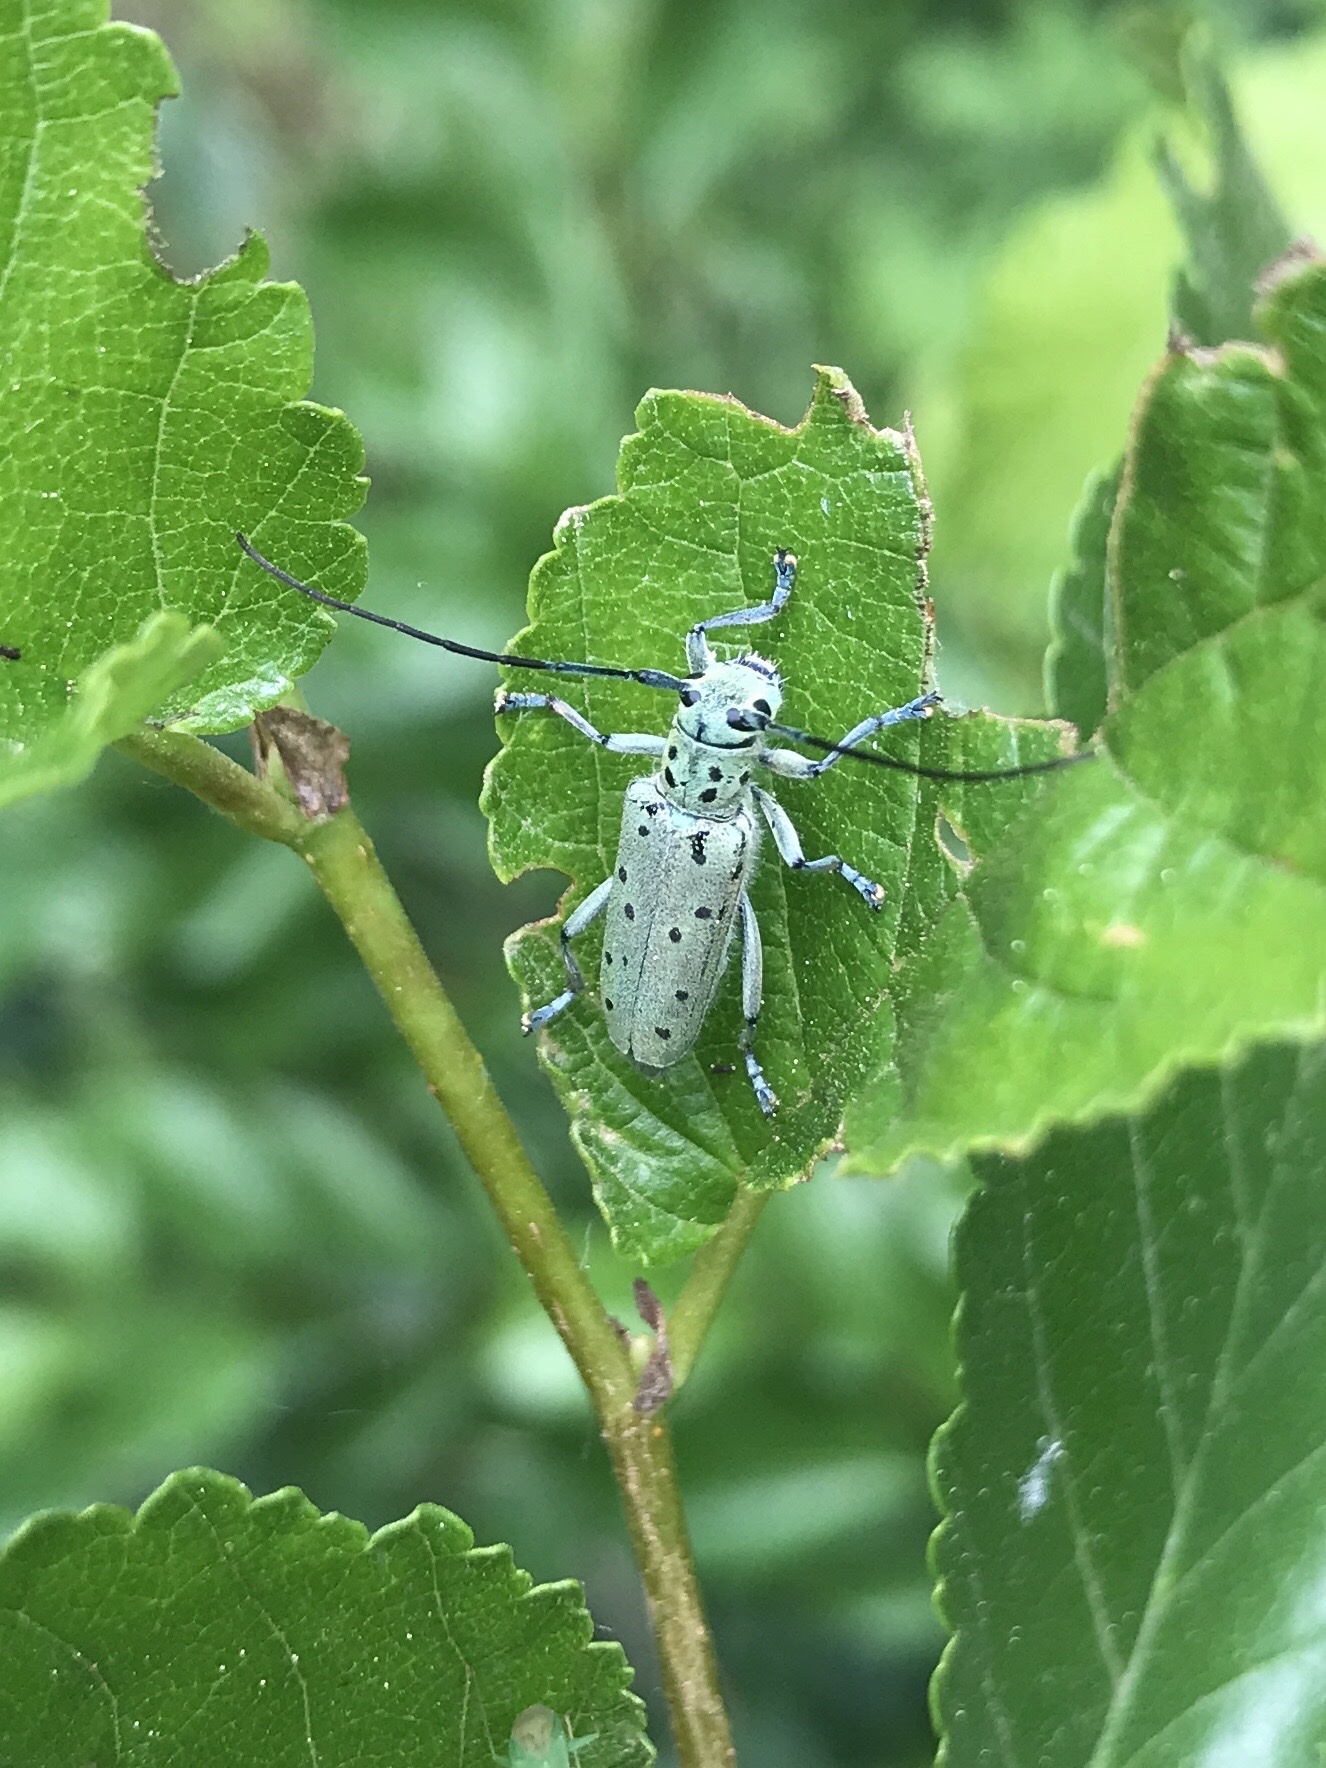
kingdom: Animalia
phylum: Arthropoda
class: Insecta
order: Coleoptera
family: Cerambycidae
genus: Saperda
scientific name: Saperda punctata
